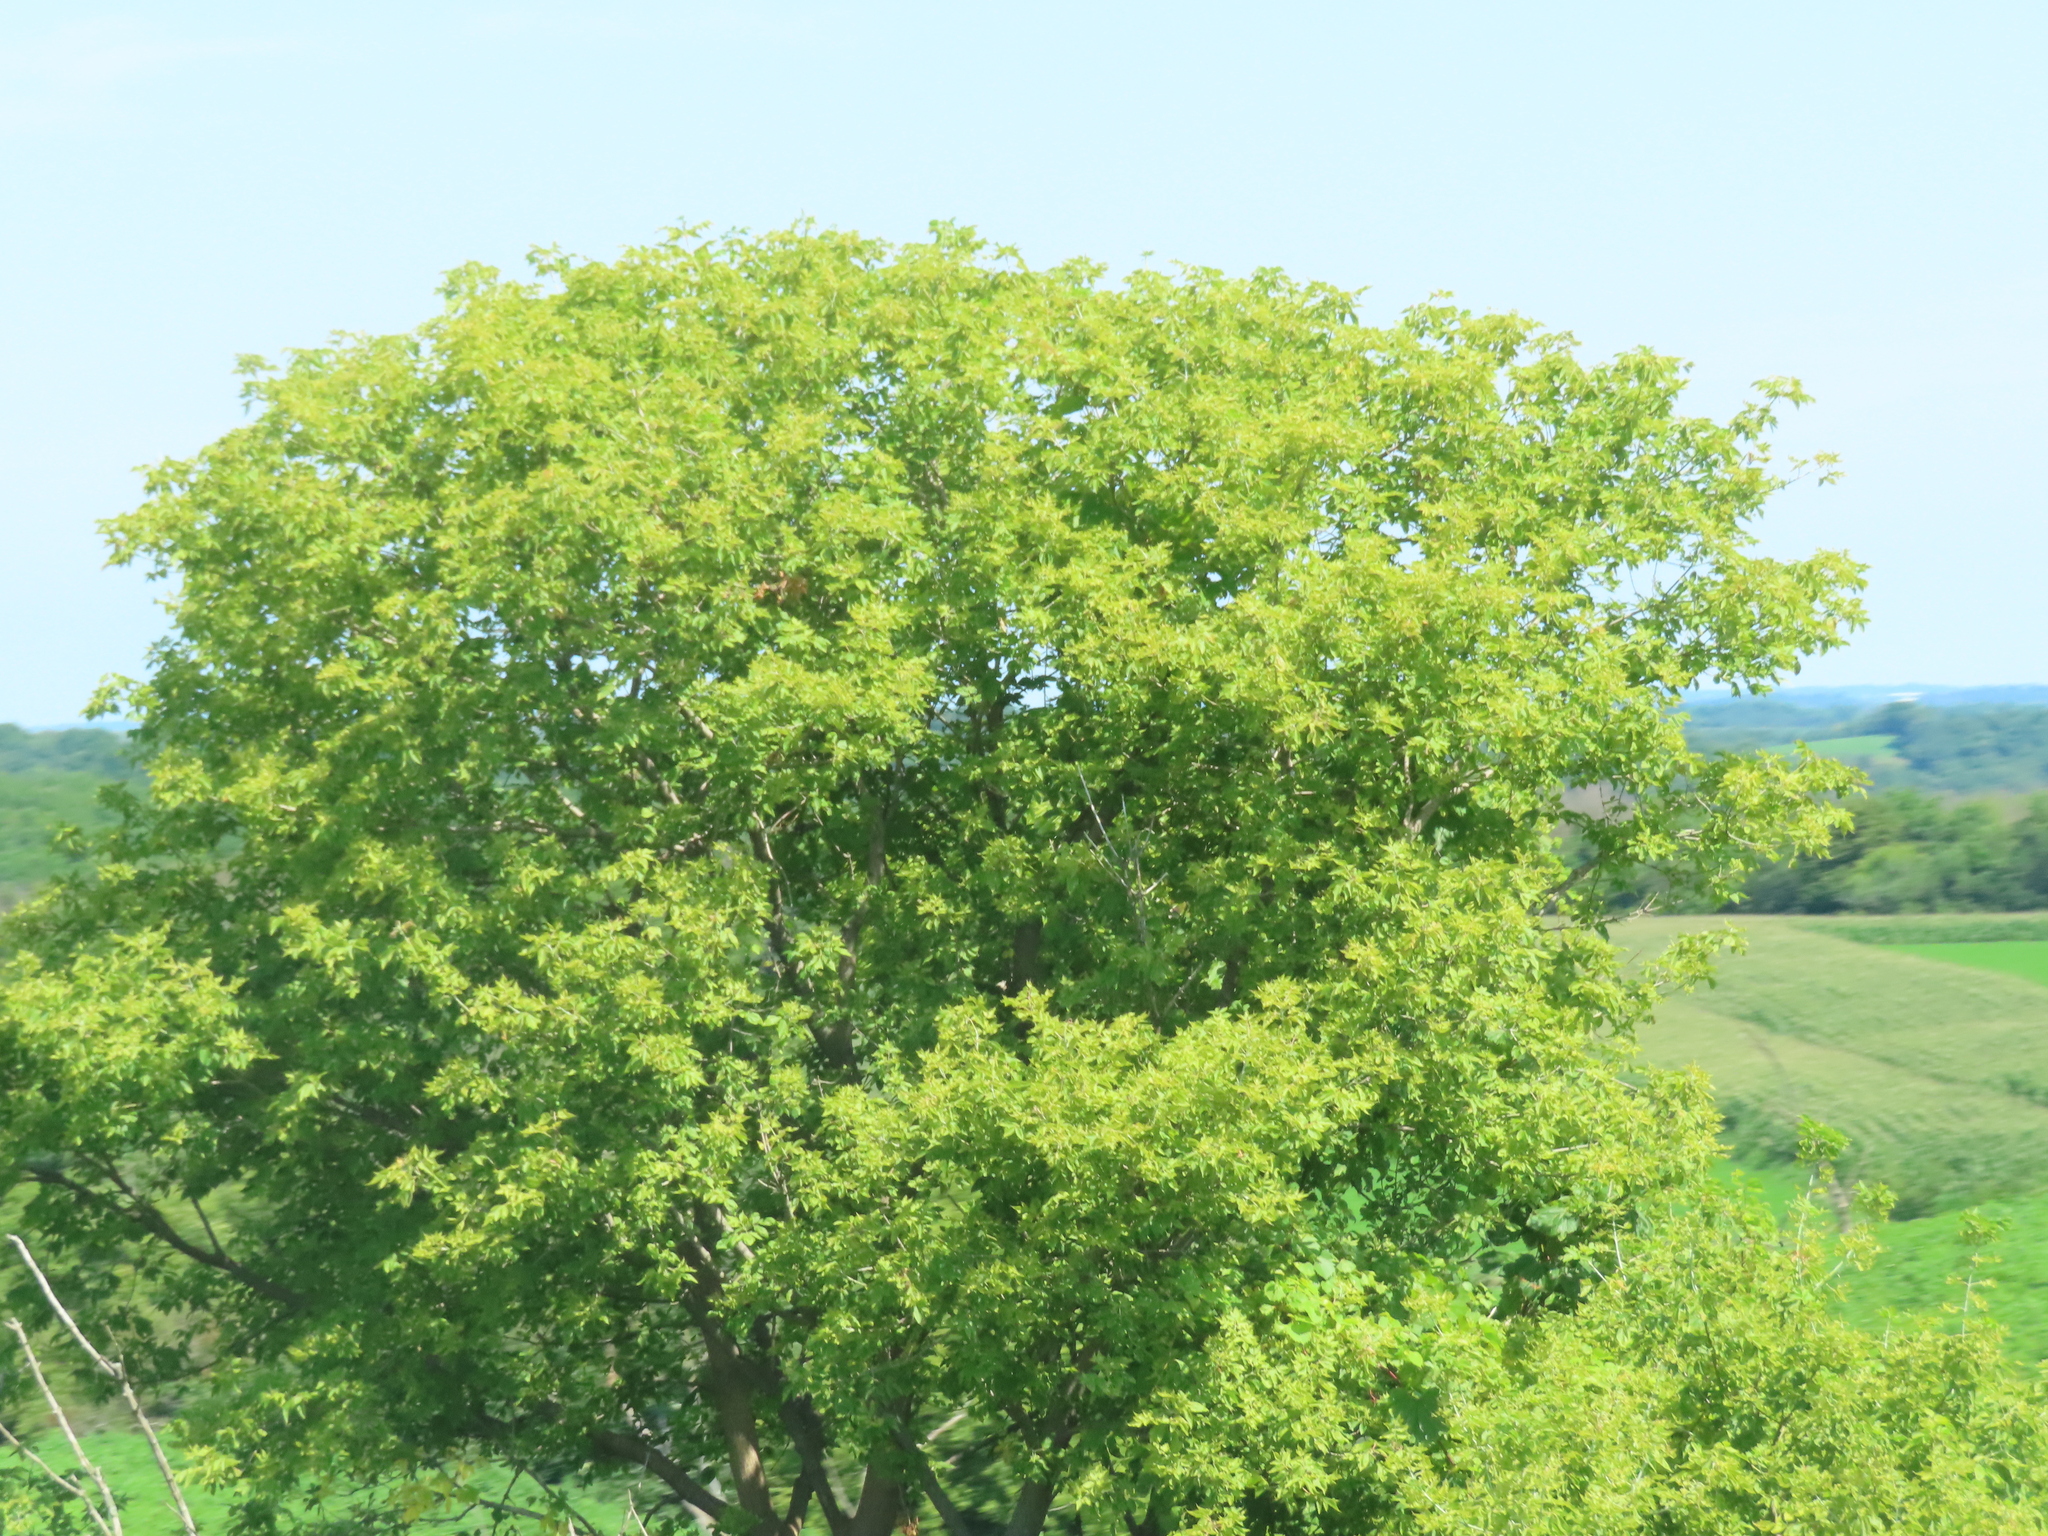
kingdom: Plantae
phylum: Tracheophyta
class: Magnoliopsida
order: Sapindales
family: Sapindaceae
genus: Acer
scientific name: Acer negundo
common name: Ashleaf maple
